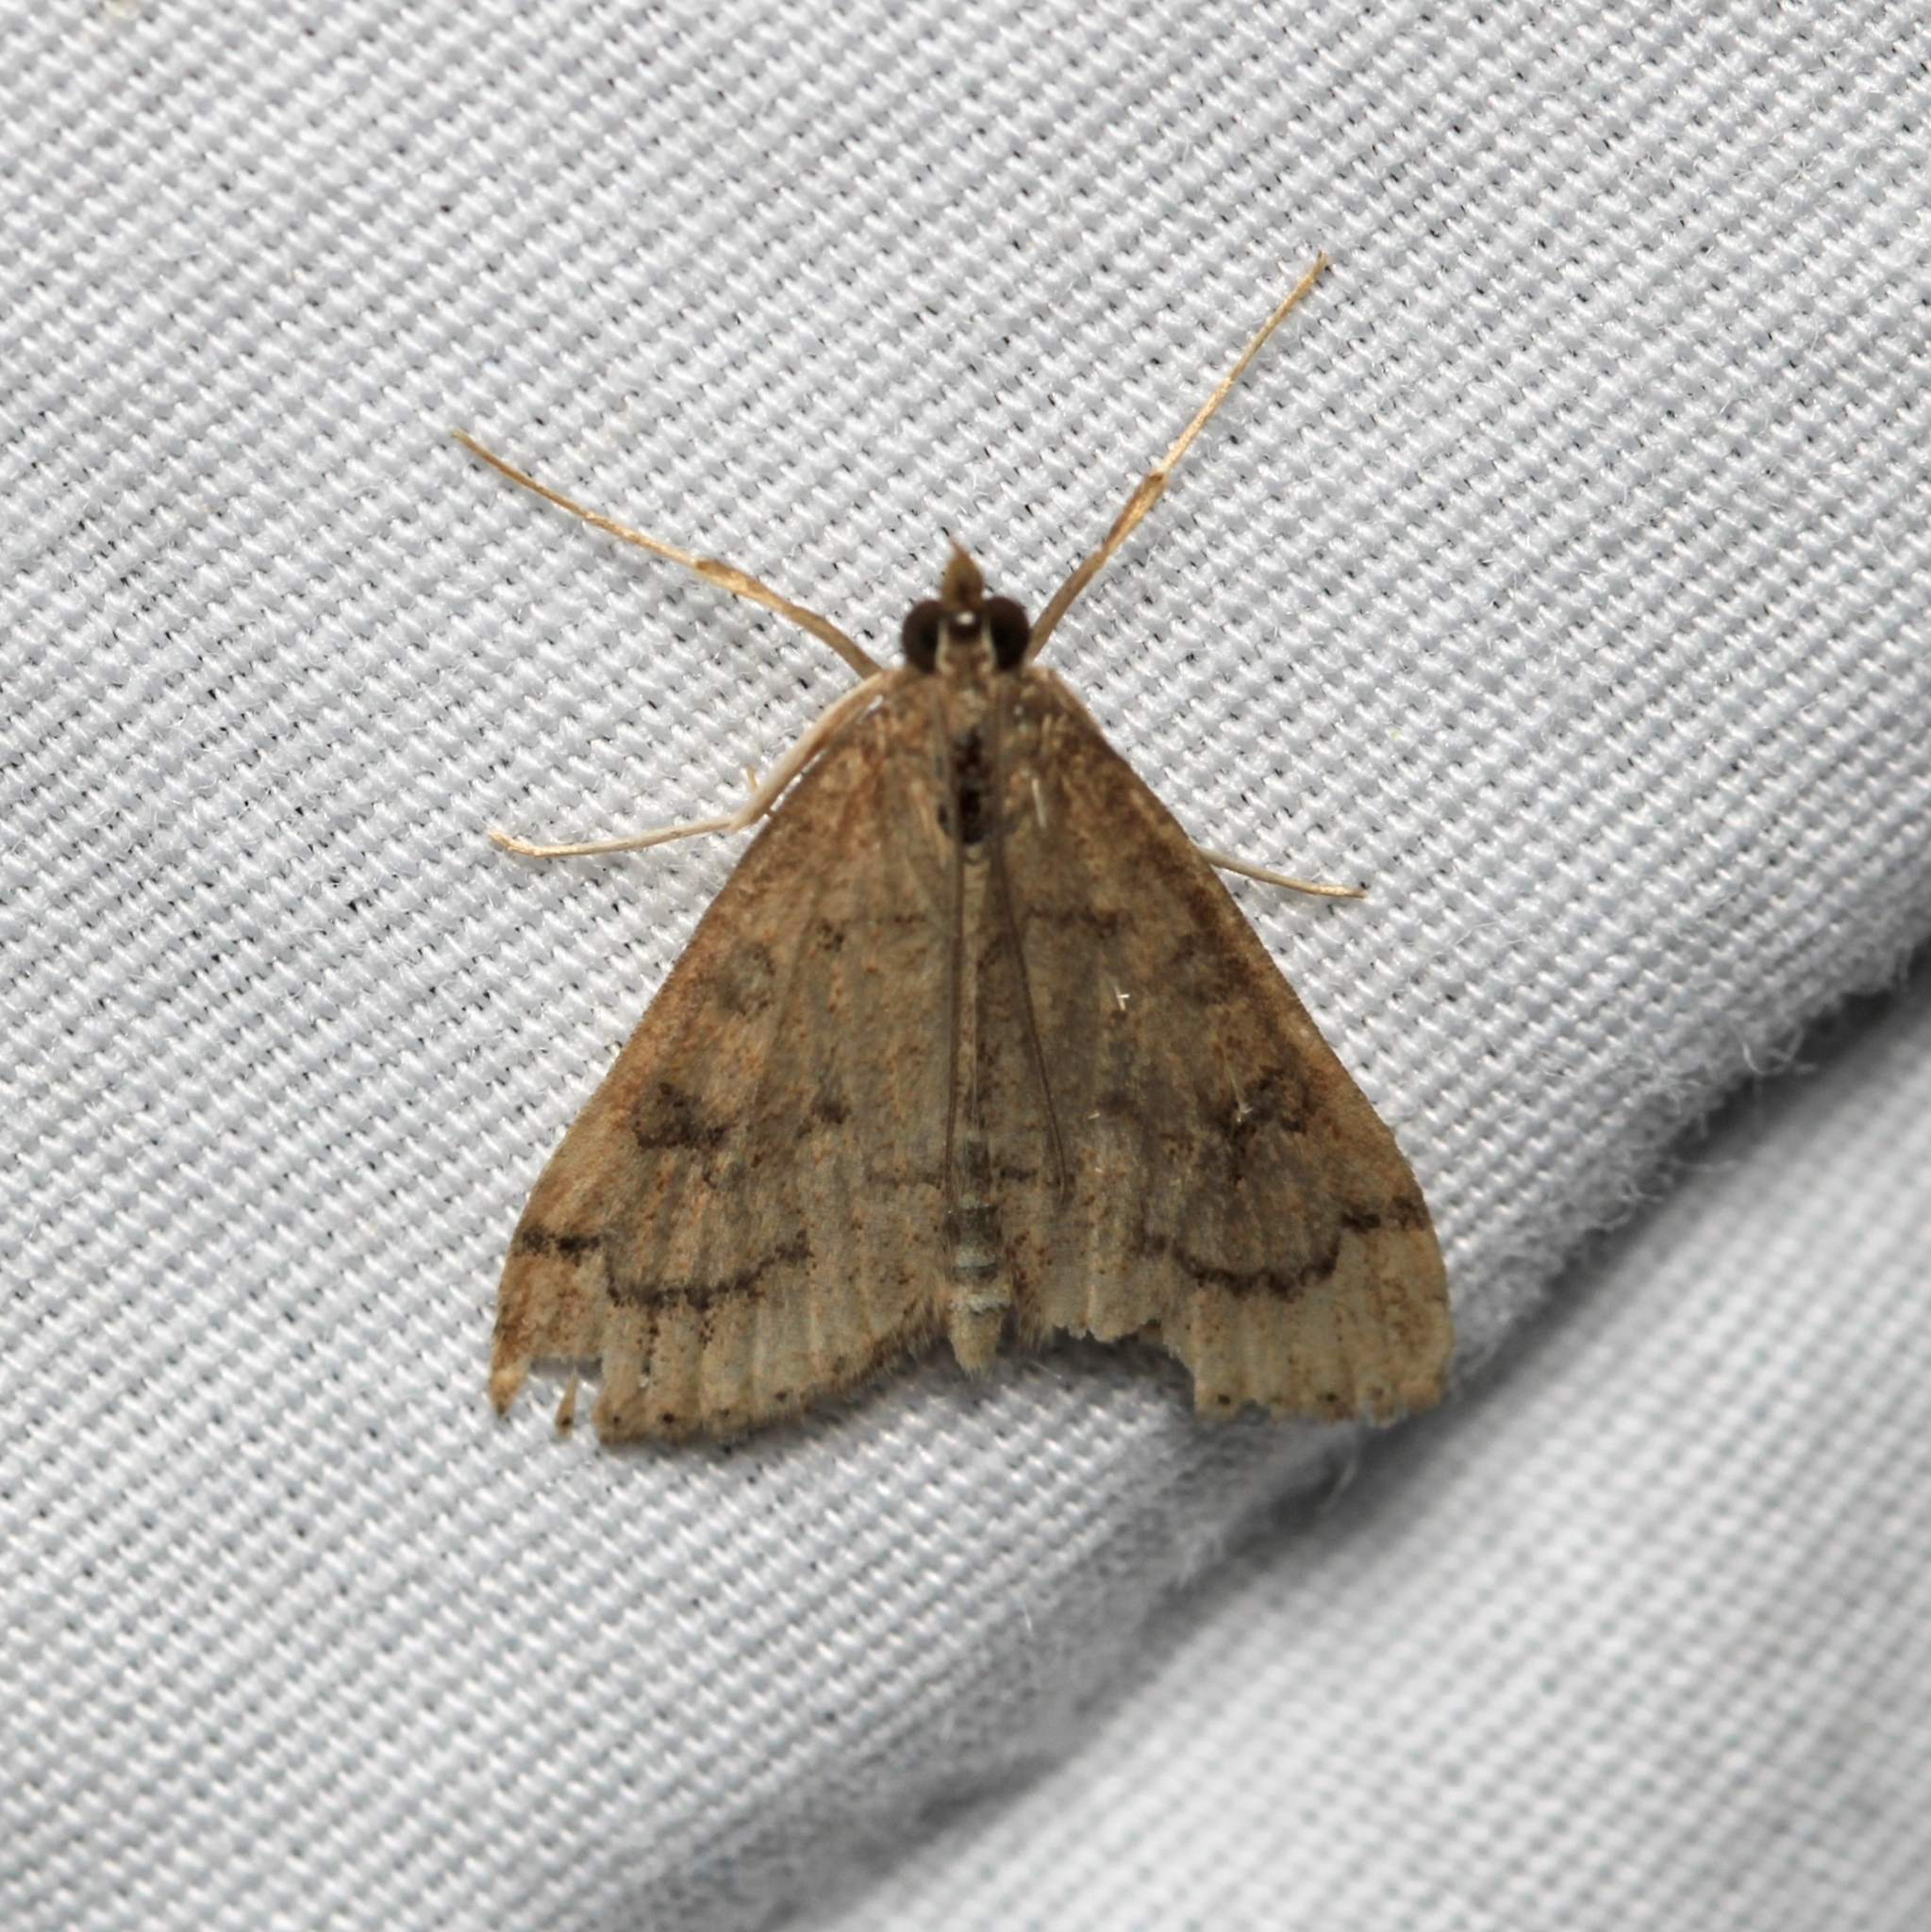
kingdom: Animalia
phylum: Arthropoda
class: Insecta
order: Lepidoptera
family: Crambidae
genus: Udea
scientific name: Udea rubigalis
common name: Celery leaftier moth
